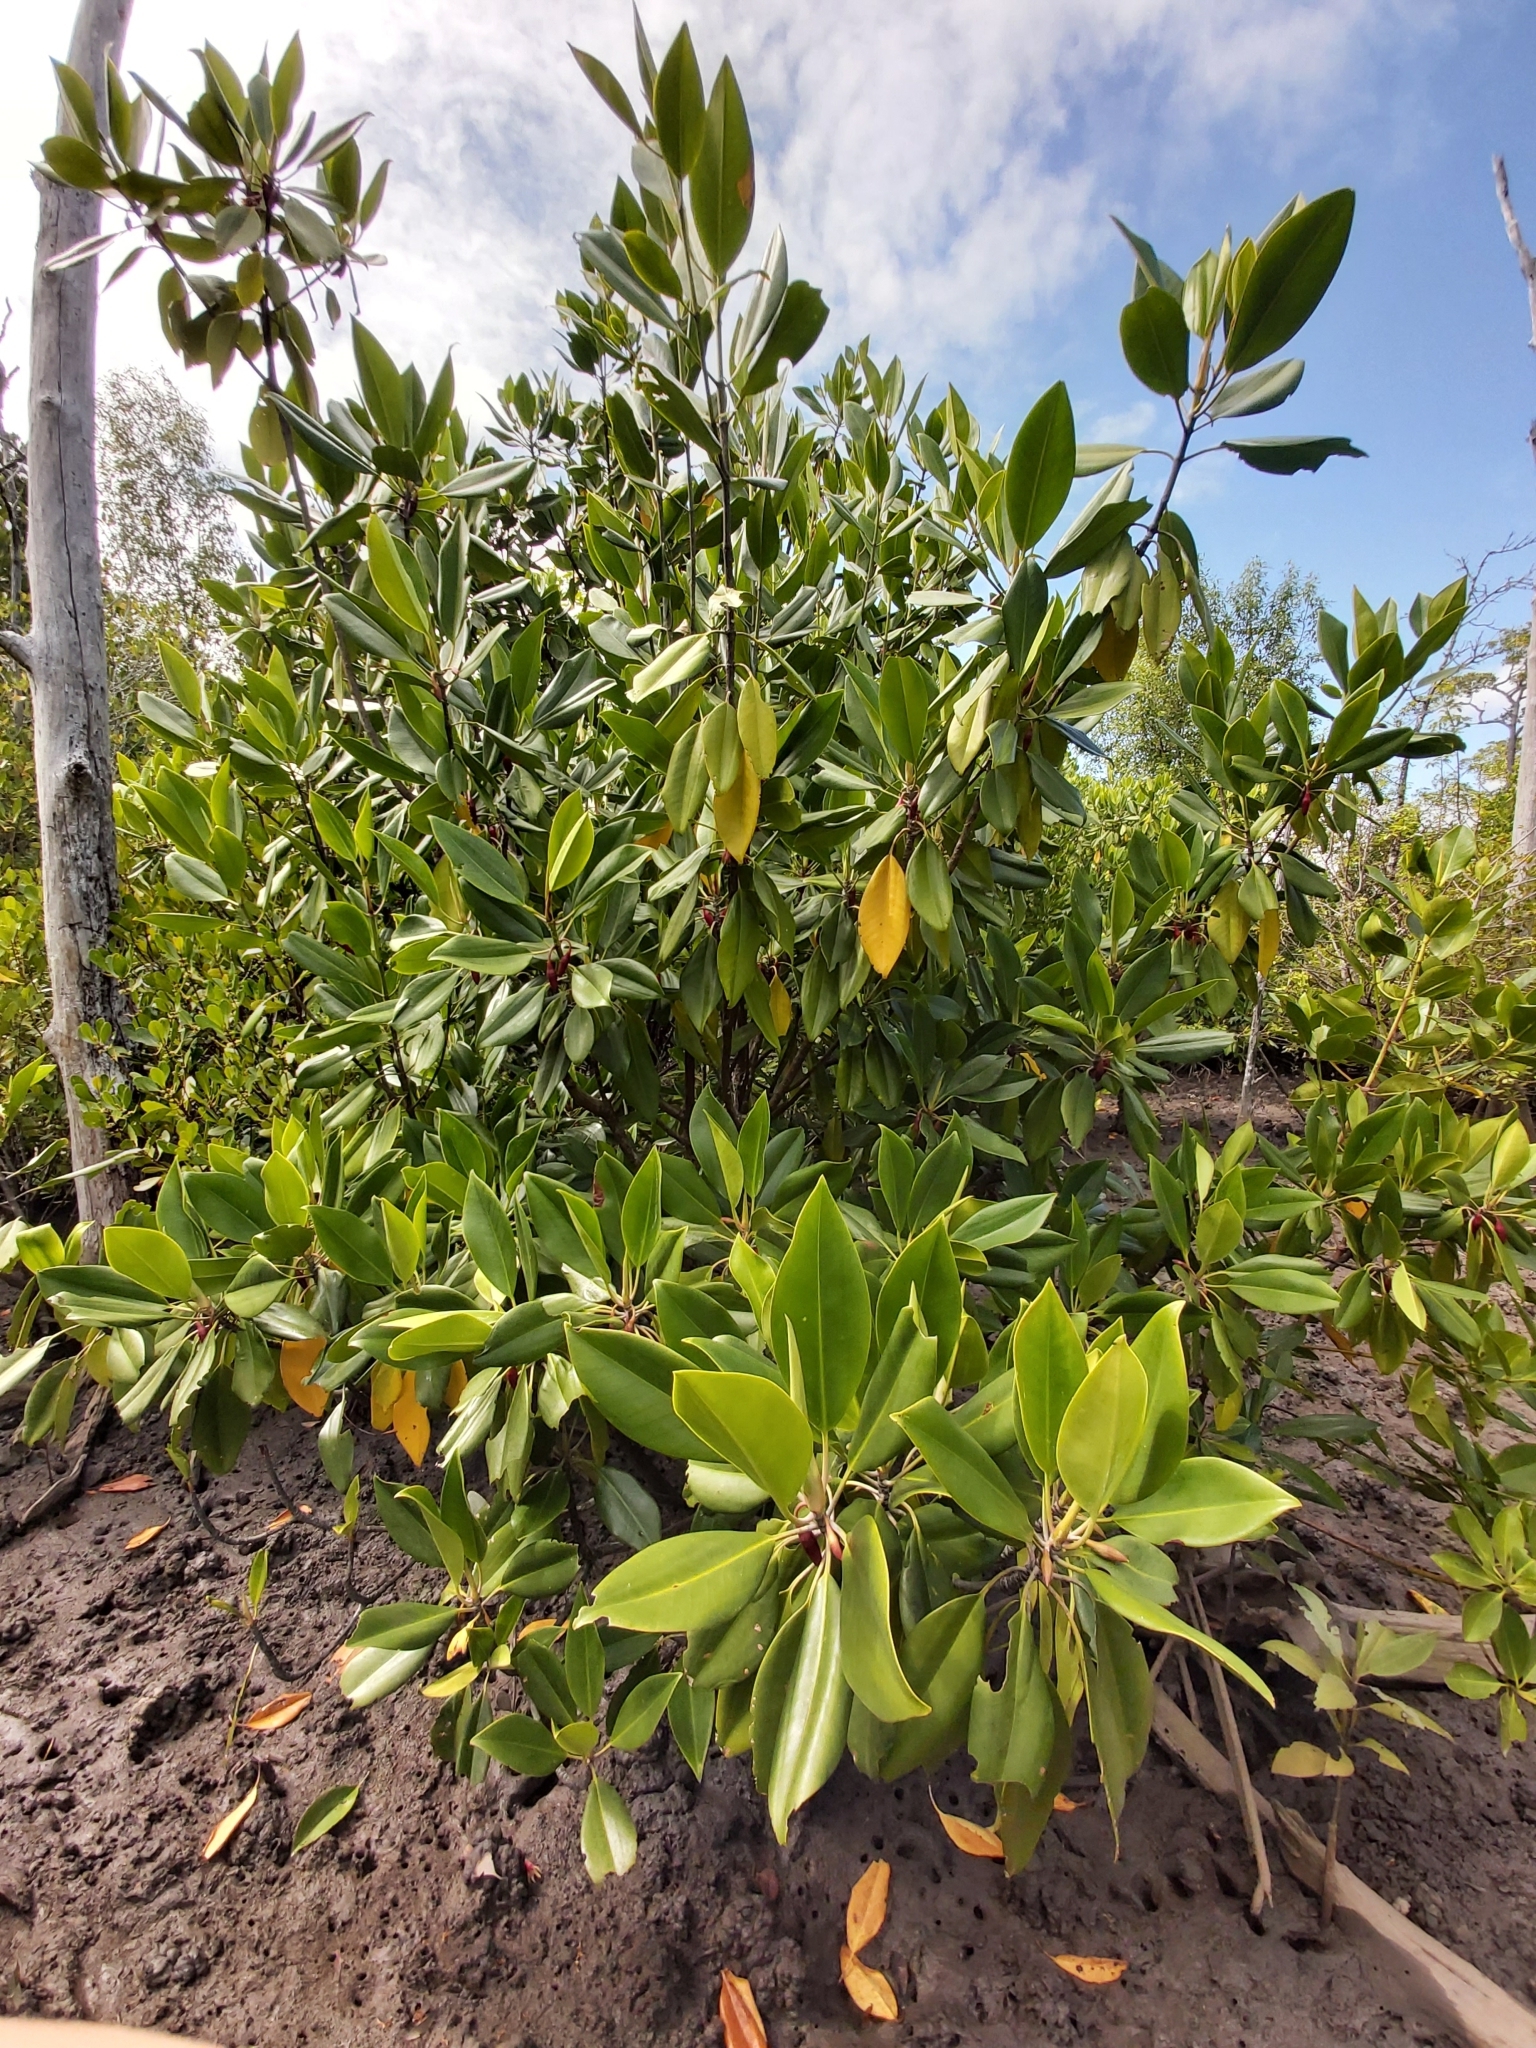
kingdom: Plantae
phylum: Tracheophyta
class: Magnoliopsida
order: Malpighiales
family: Rhizophoraceae
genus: Bruguiera
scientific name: Bruguiera gymnorhiza
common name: Oriental mangrove
